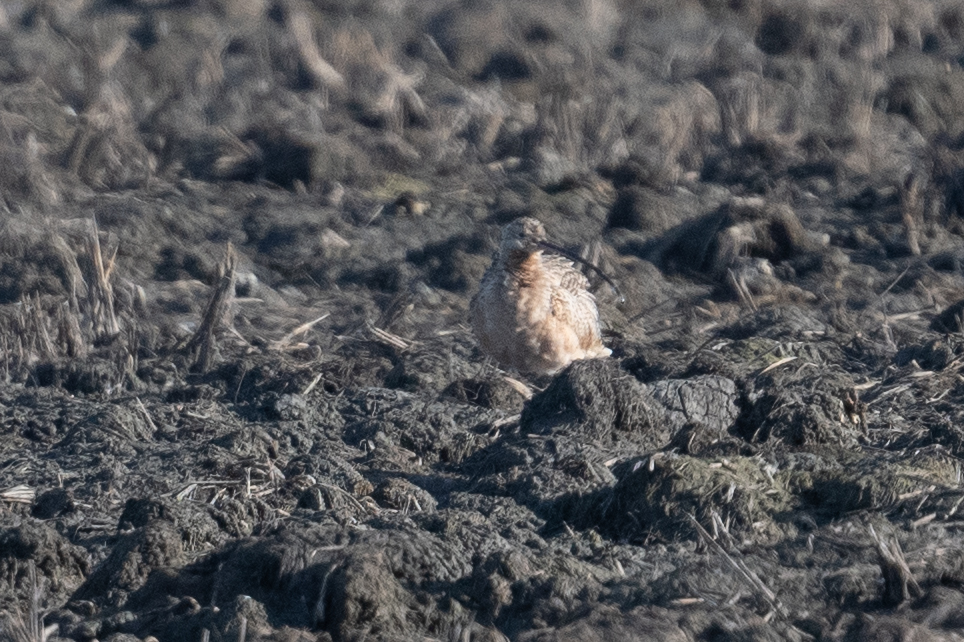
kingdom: Animalia
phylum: Chordata
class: Aves
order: Charadriiformes
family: Scolopacidae
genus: Numenius
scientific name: Numenius americanus
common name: Long-billed curlew
